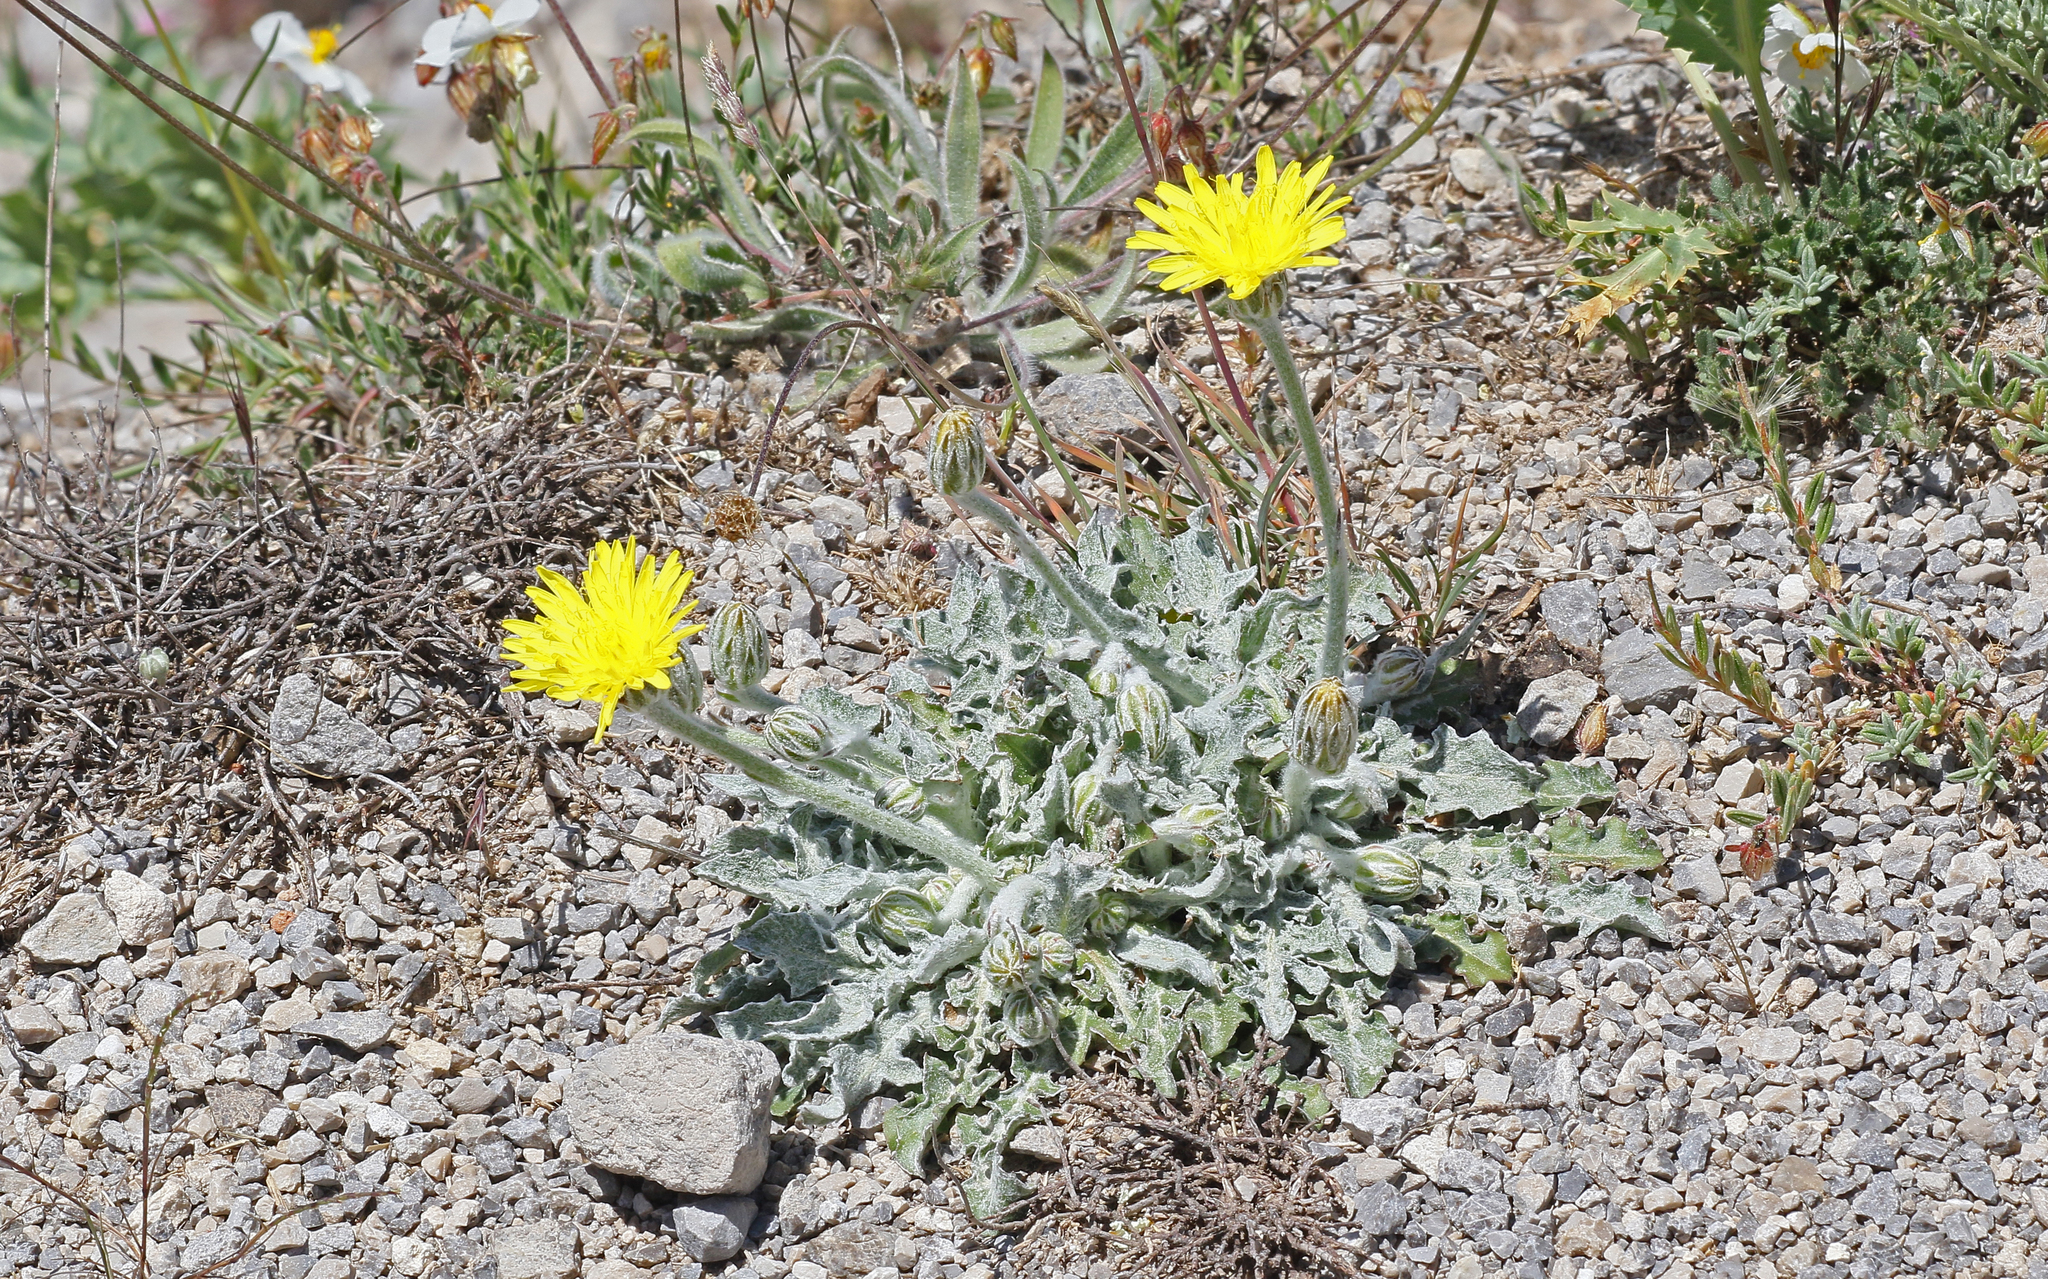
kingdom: Plantae
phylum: Tracheophyta
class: Magnoliopsida
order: Asterales
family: Asteraceae
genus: Crepis
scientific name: Crepis albida
